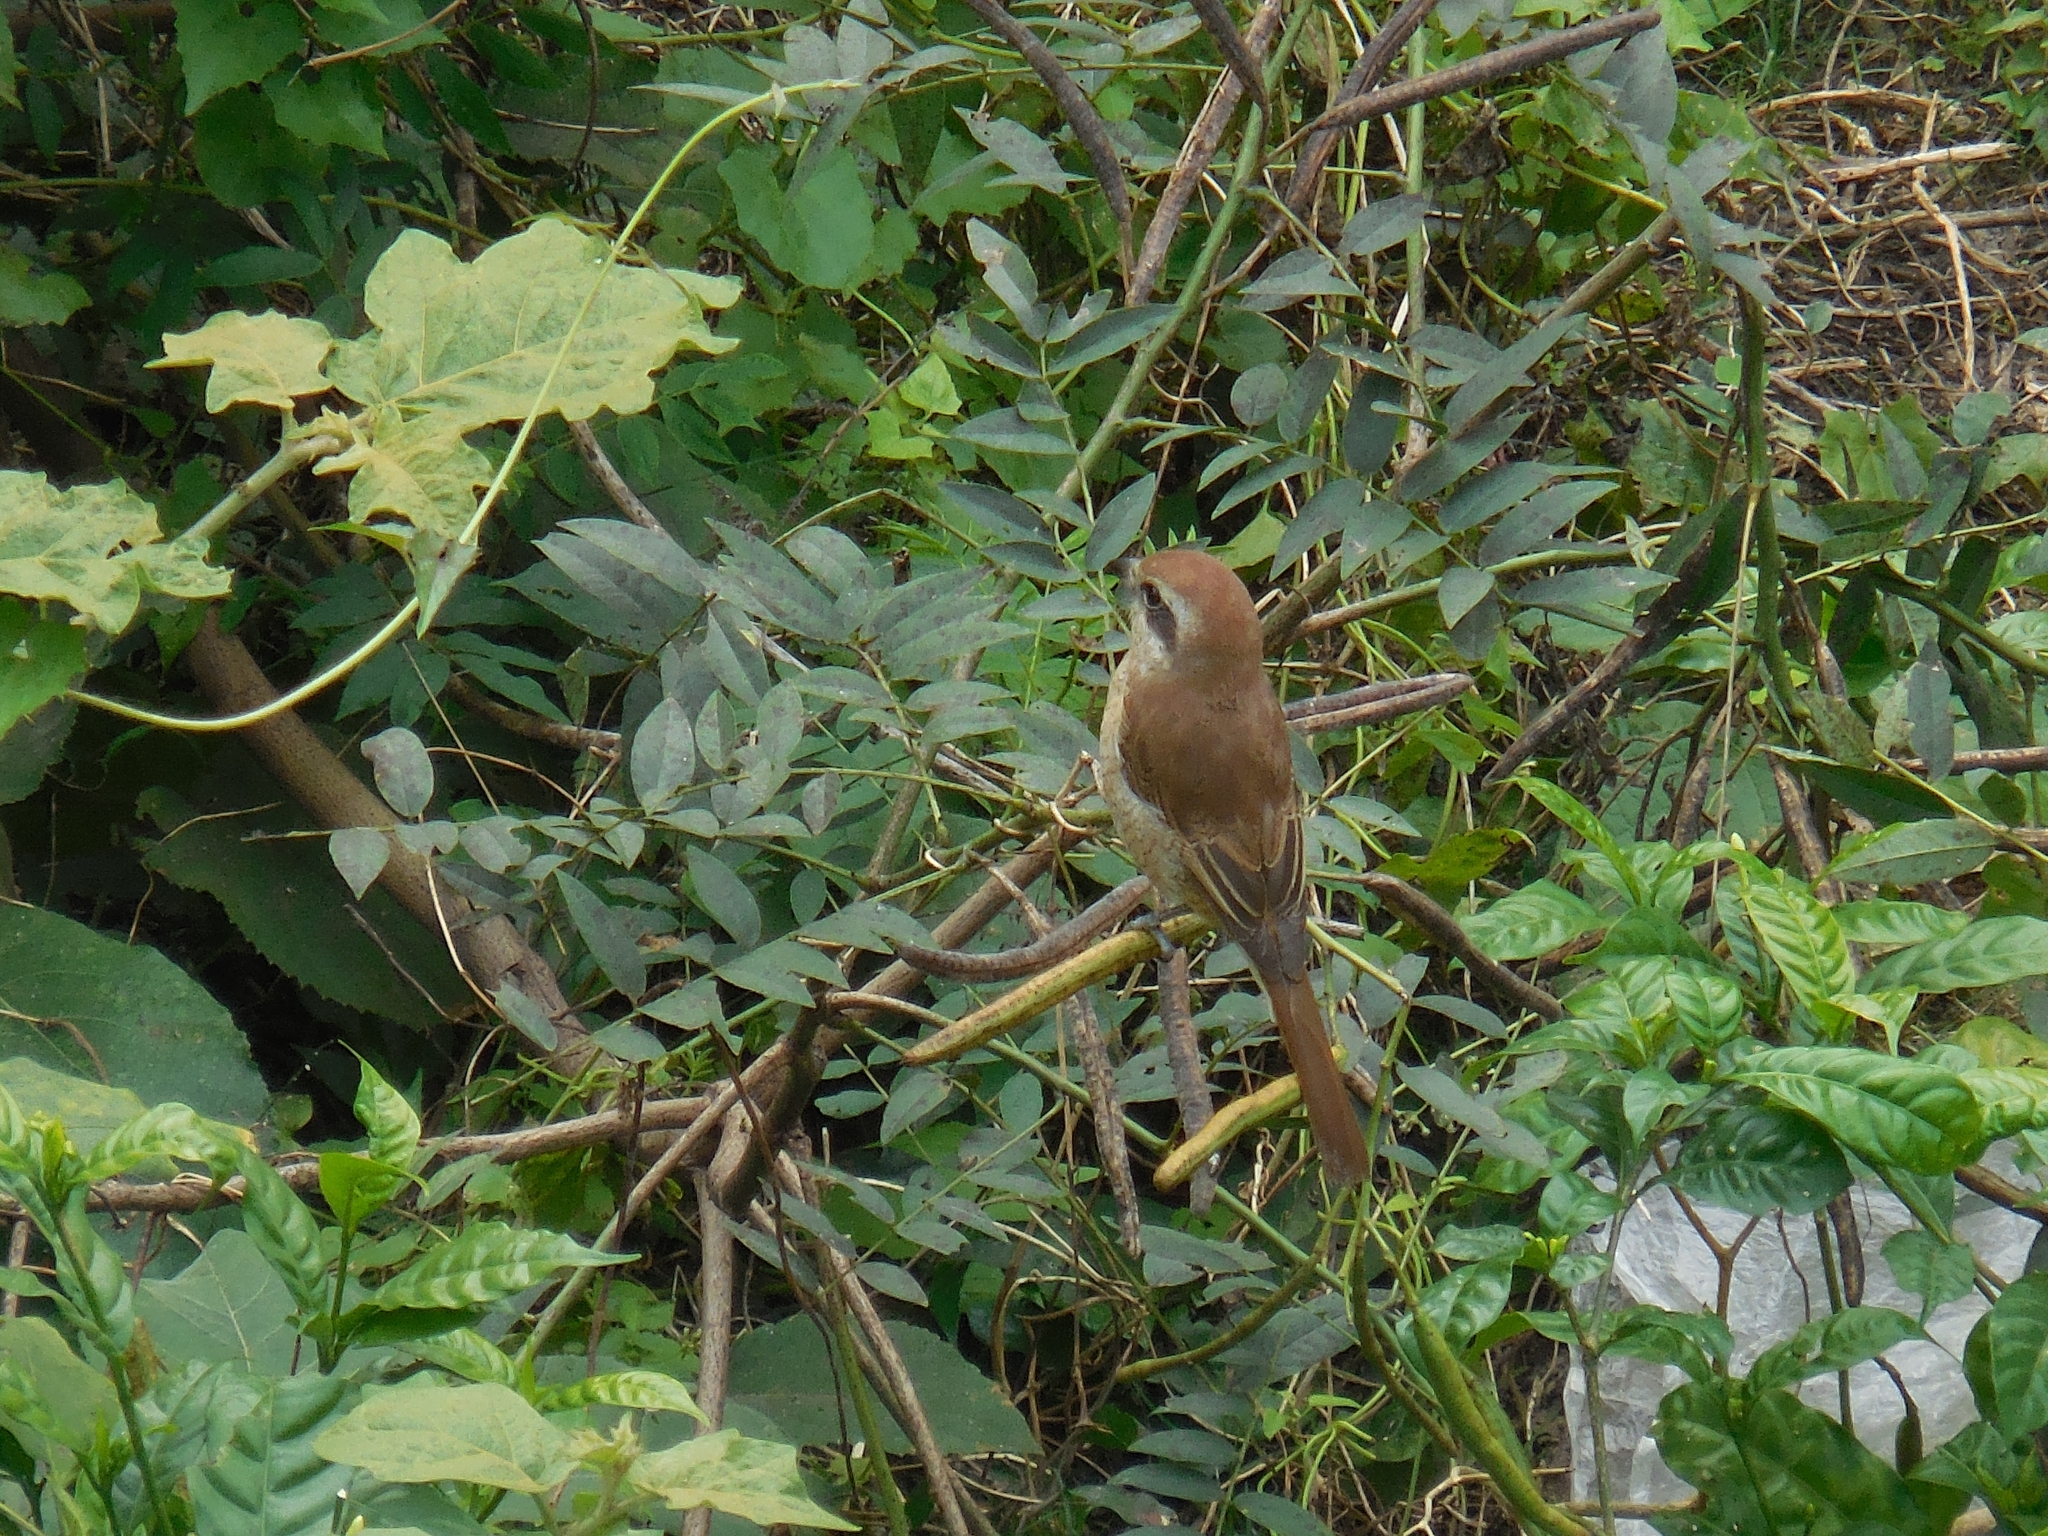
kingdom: Animalia
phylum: Chordata
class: Aves
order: Passeriformes
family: Laniidae
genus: Lanius
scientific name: Lanius cristatus
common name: Brown shrike
